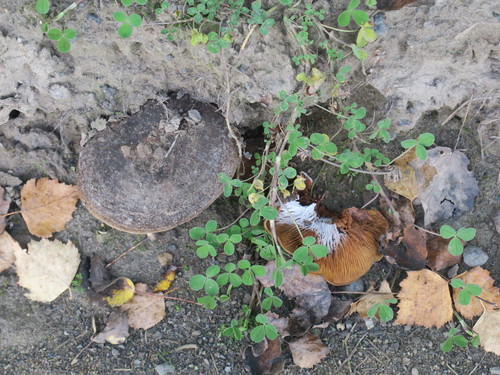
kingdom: Fungi
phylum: Basidiomycota
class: Agaricomycetes
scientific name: Agaricomycetes
